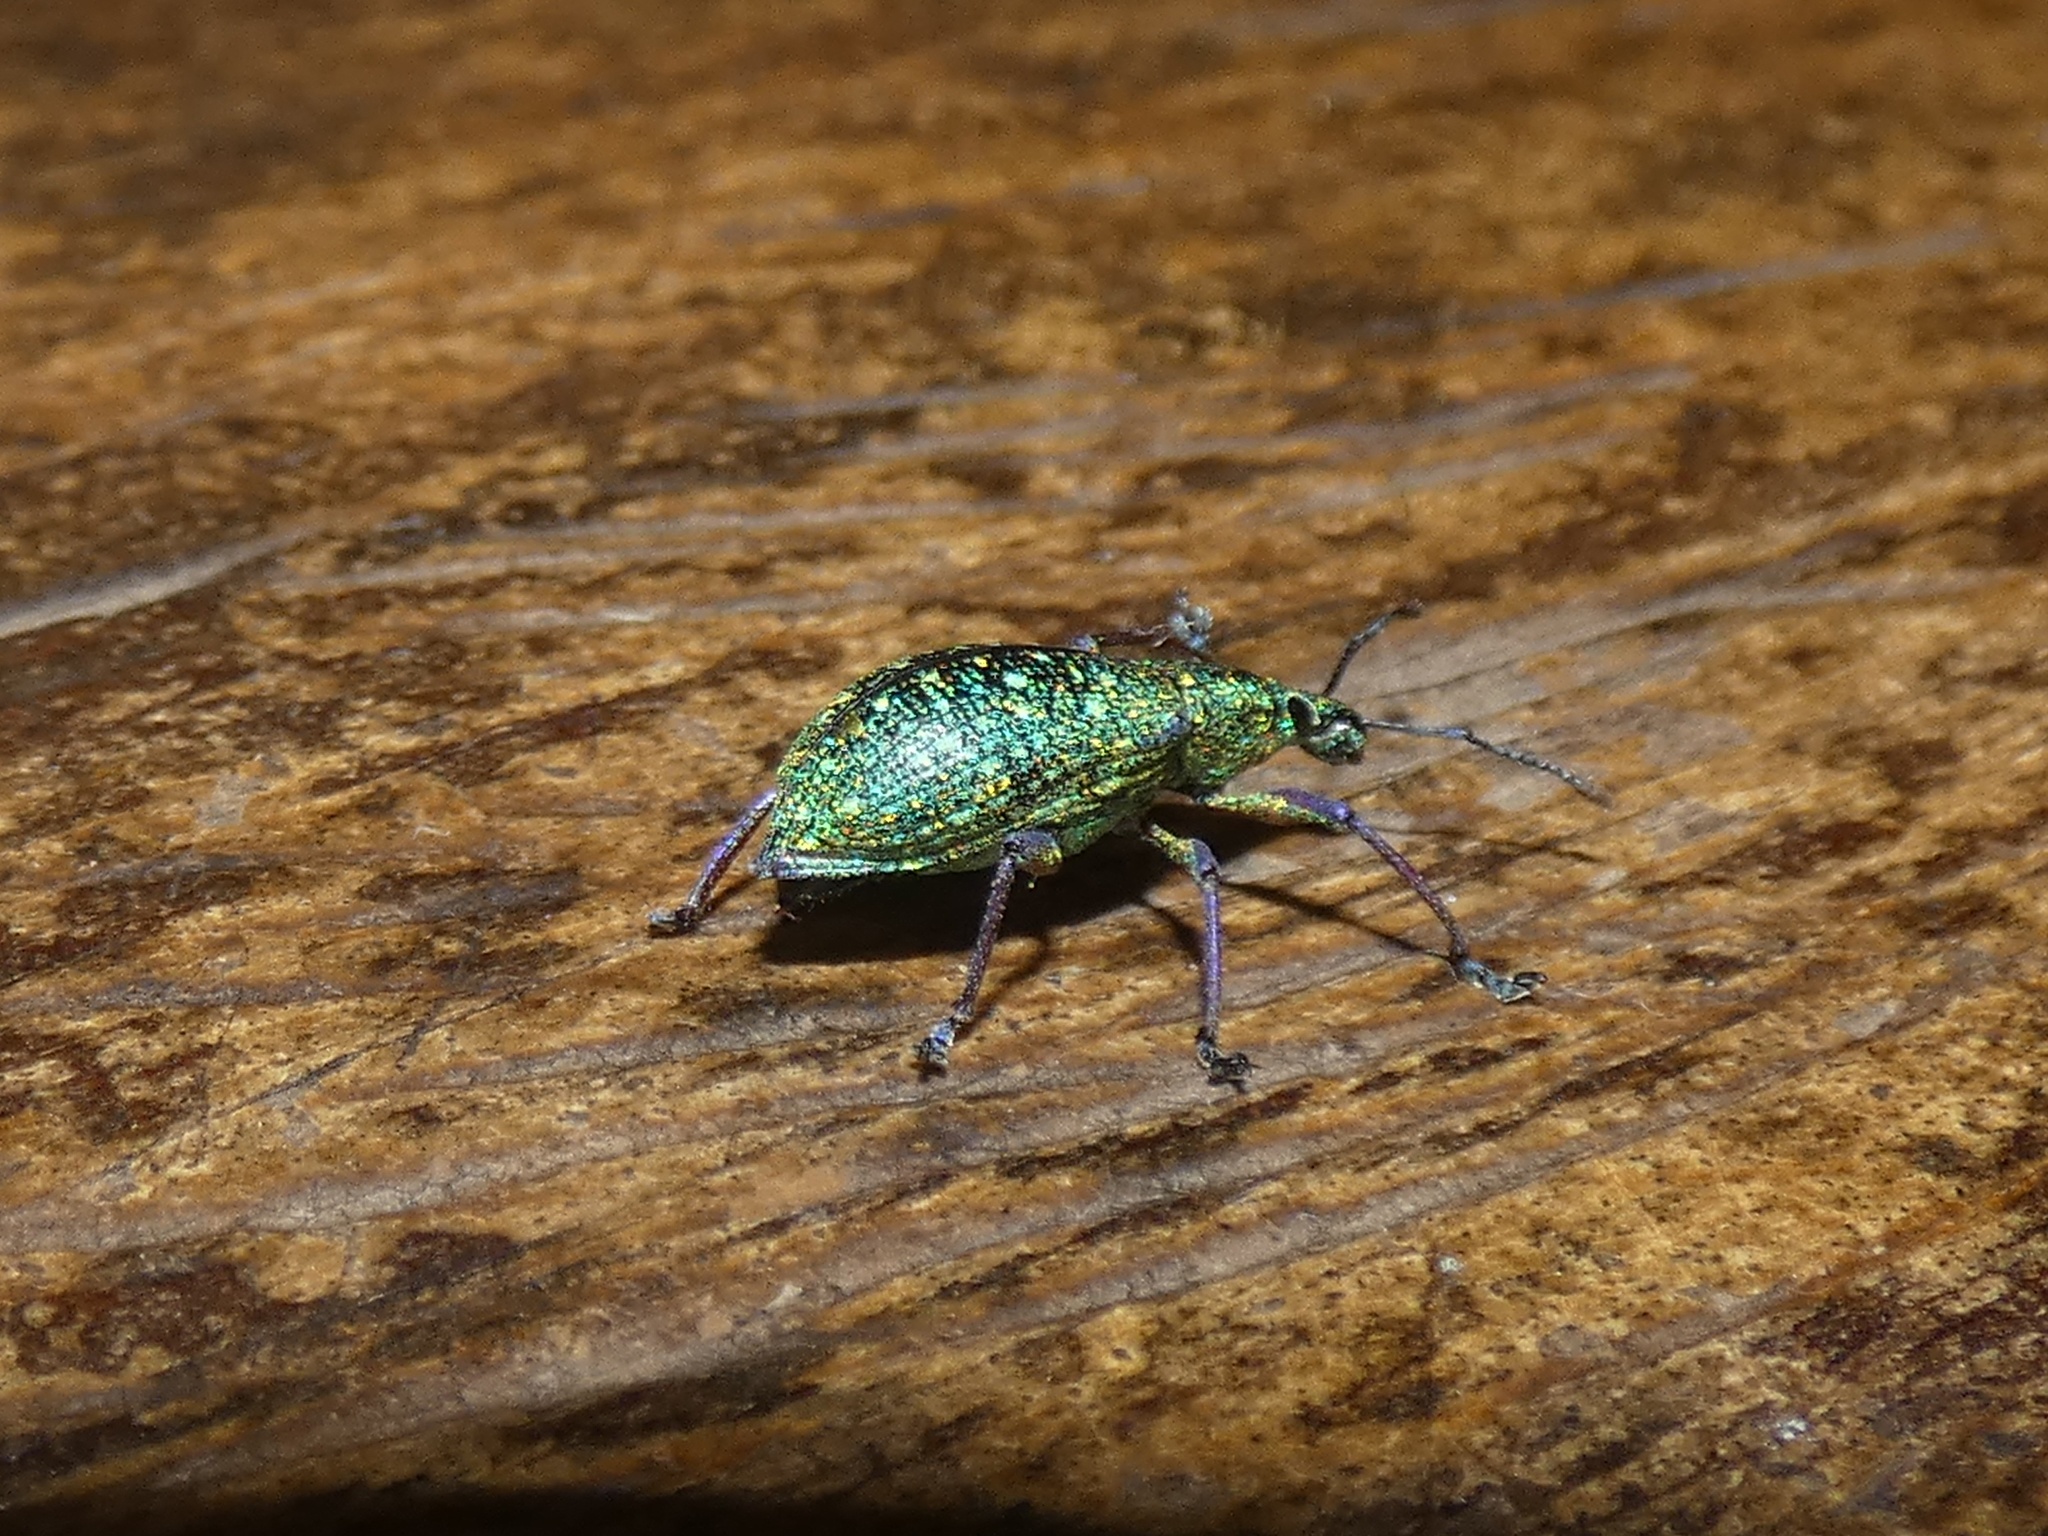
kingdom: Animalia
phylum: Arthropoda
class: Insecta
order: Coleoptera
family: Curculionidae
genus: Exophthalmus
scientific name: Exophthalmus jekelianus
